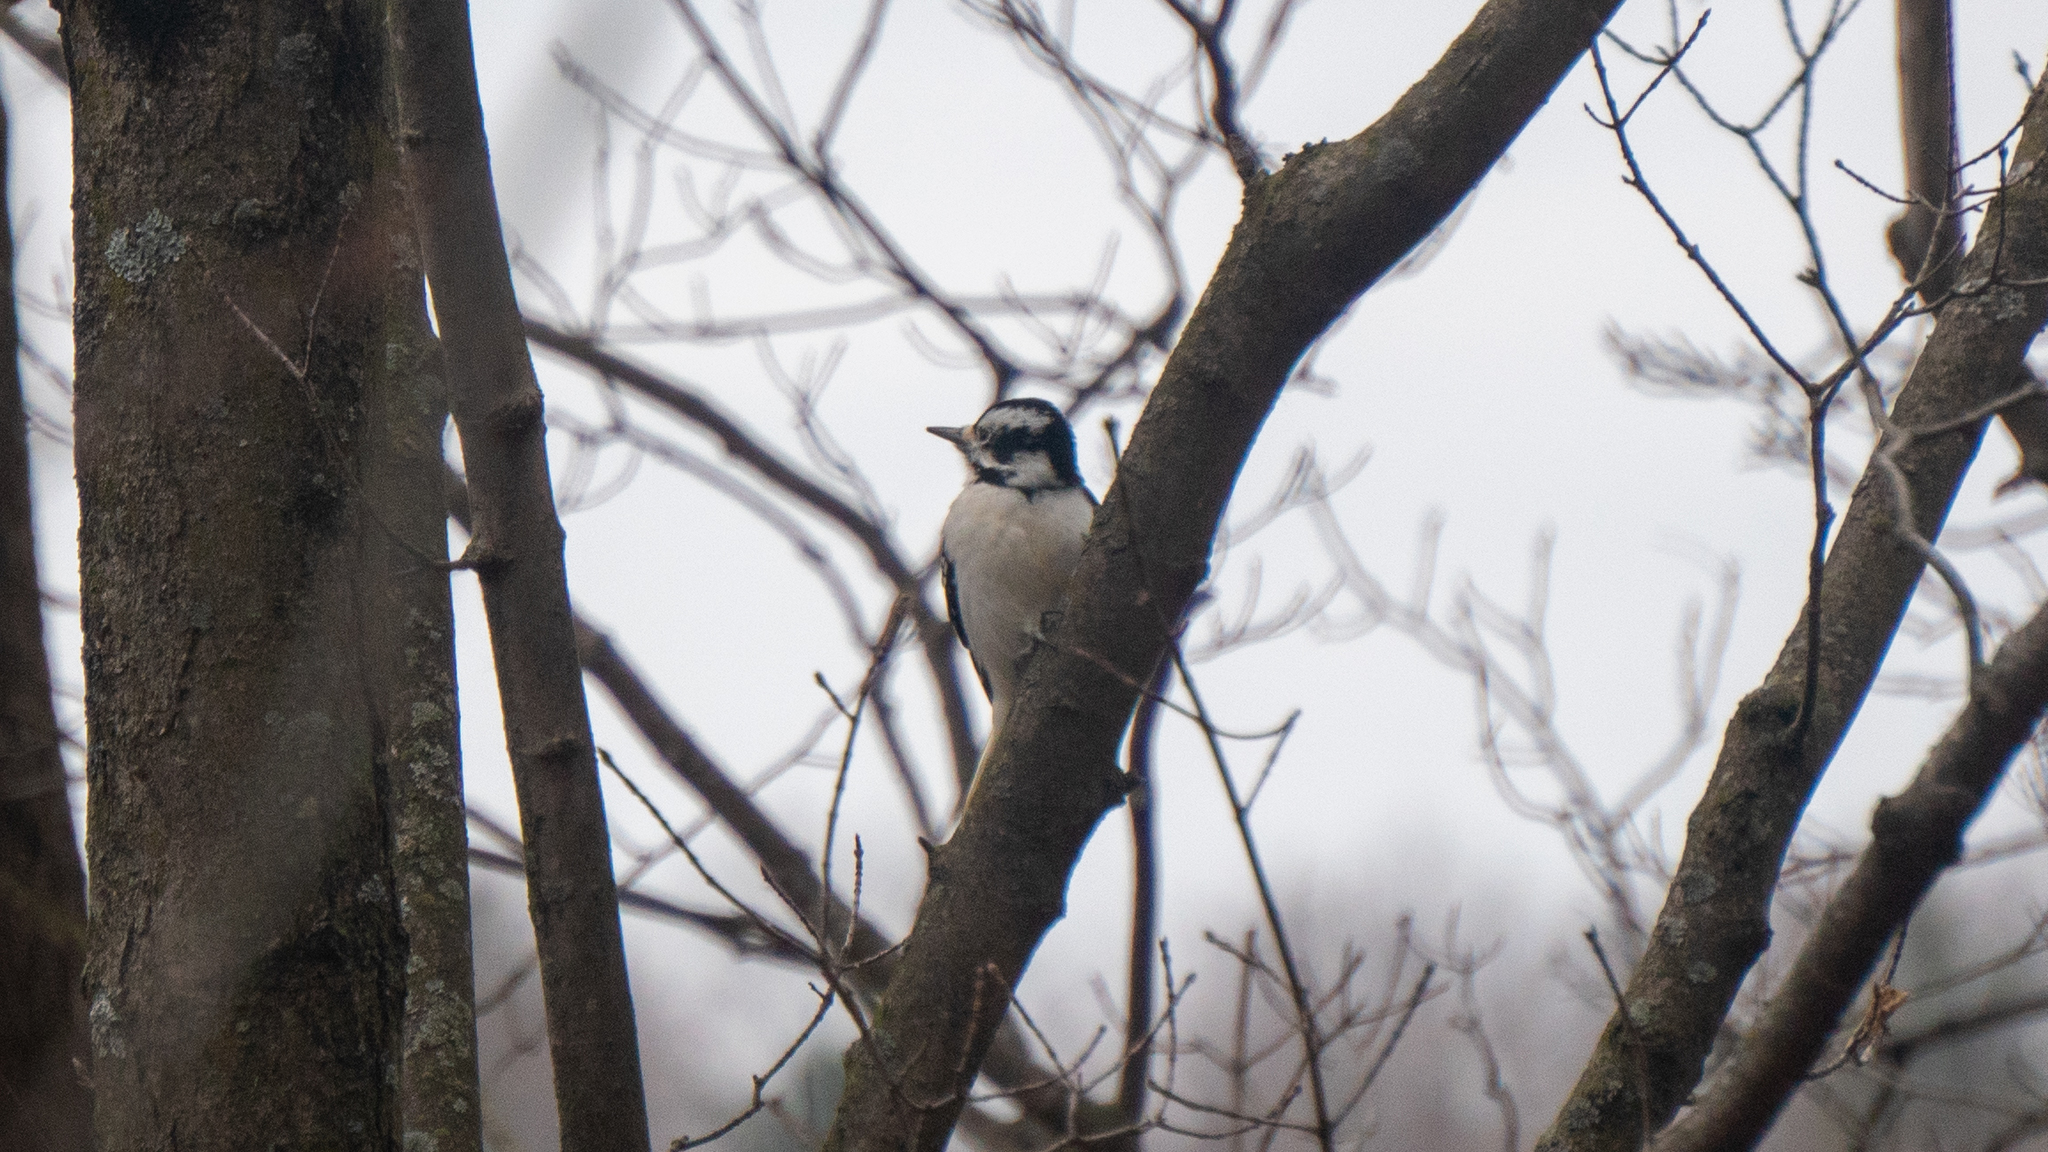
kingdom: Animalia
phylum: Chordata
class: Aves
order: Piciformes
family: Picidae
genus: Dryobates
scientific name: Dryobates pubescens
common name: Downy woodpecker
